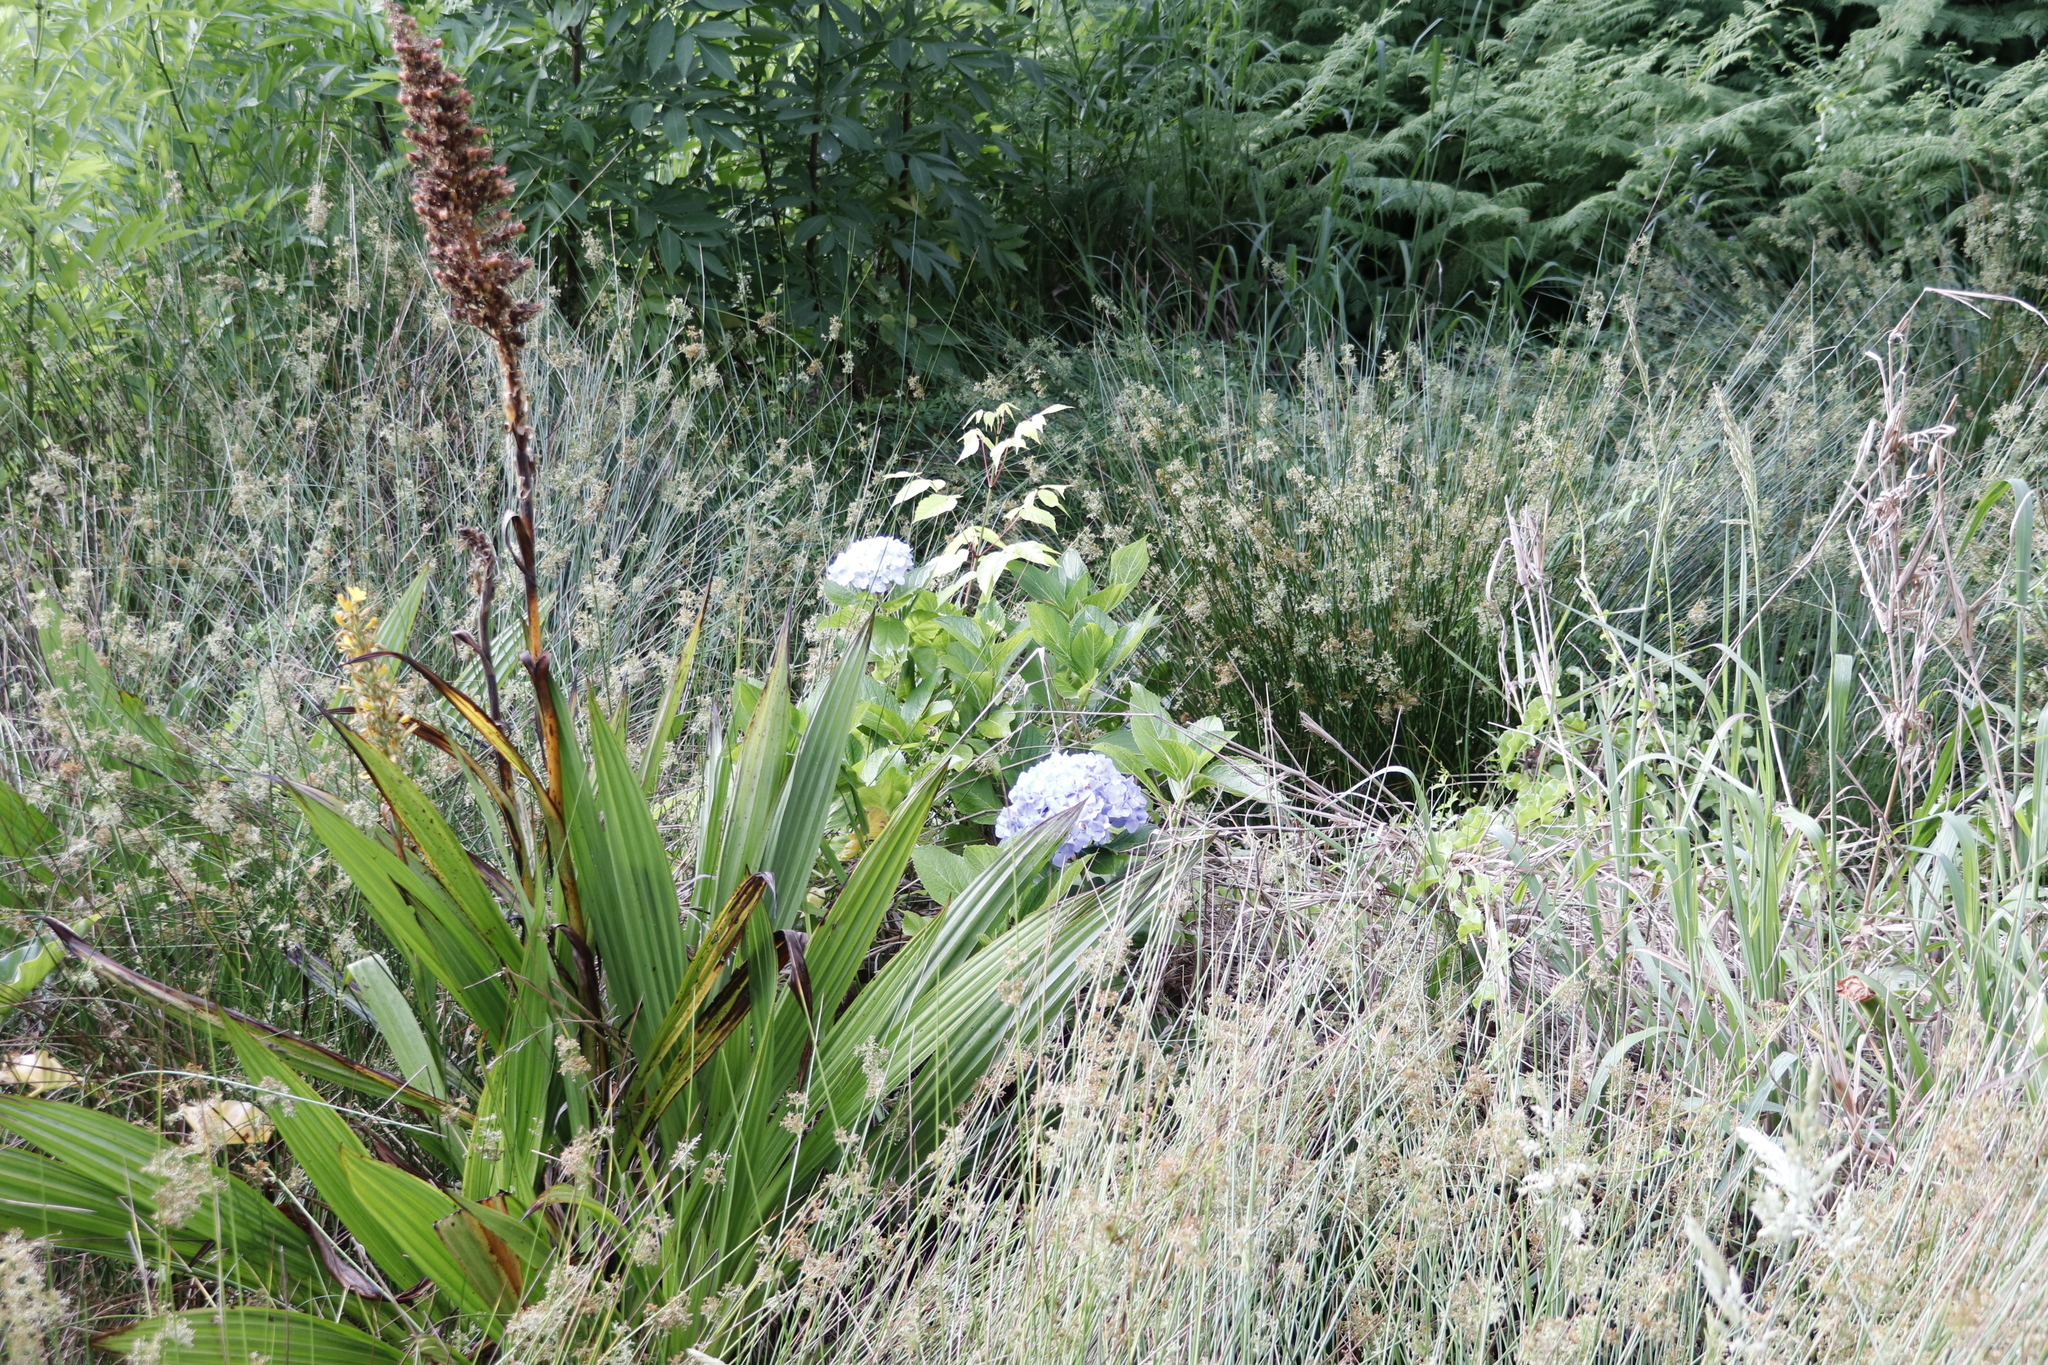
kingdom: Plantae
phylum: Tracheophyta
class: Magnoliopsida
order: Cornales
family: Hydrangeaceae
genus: Hydrangea
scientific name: Hydrangea macrophylla
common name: Hydrangea
